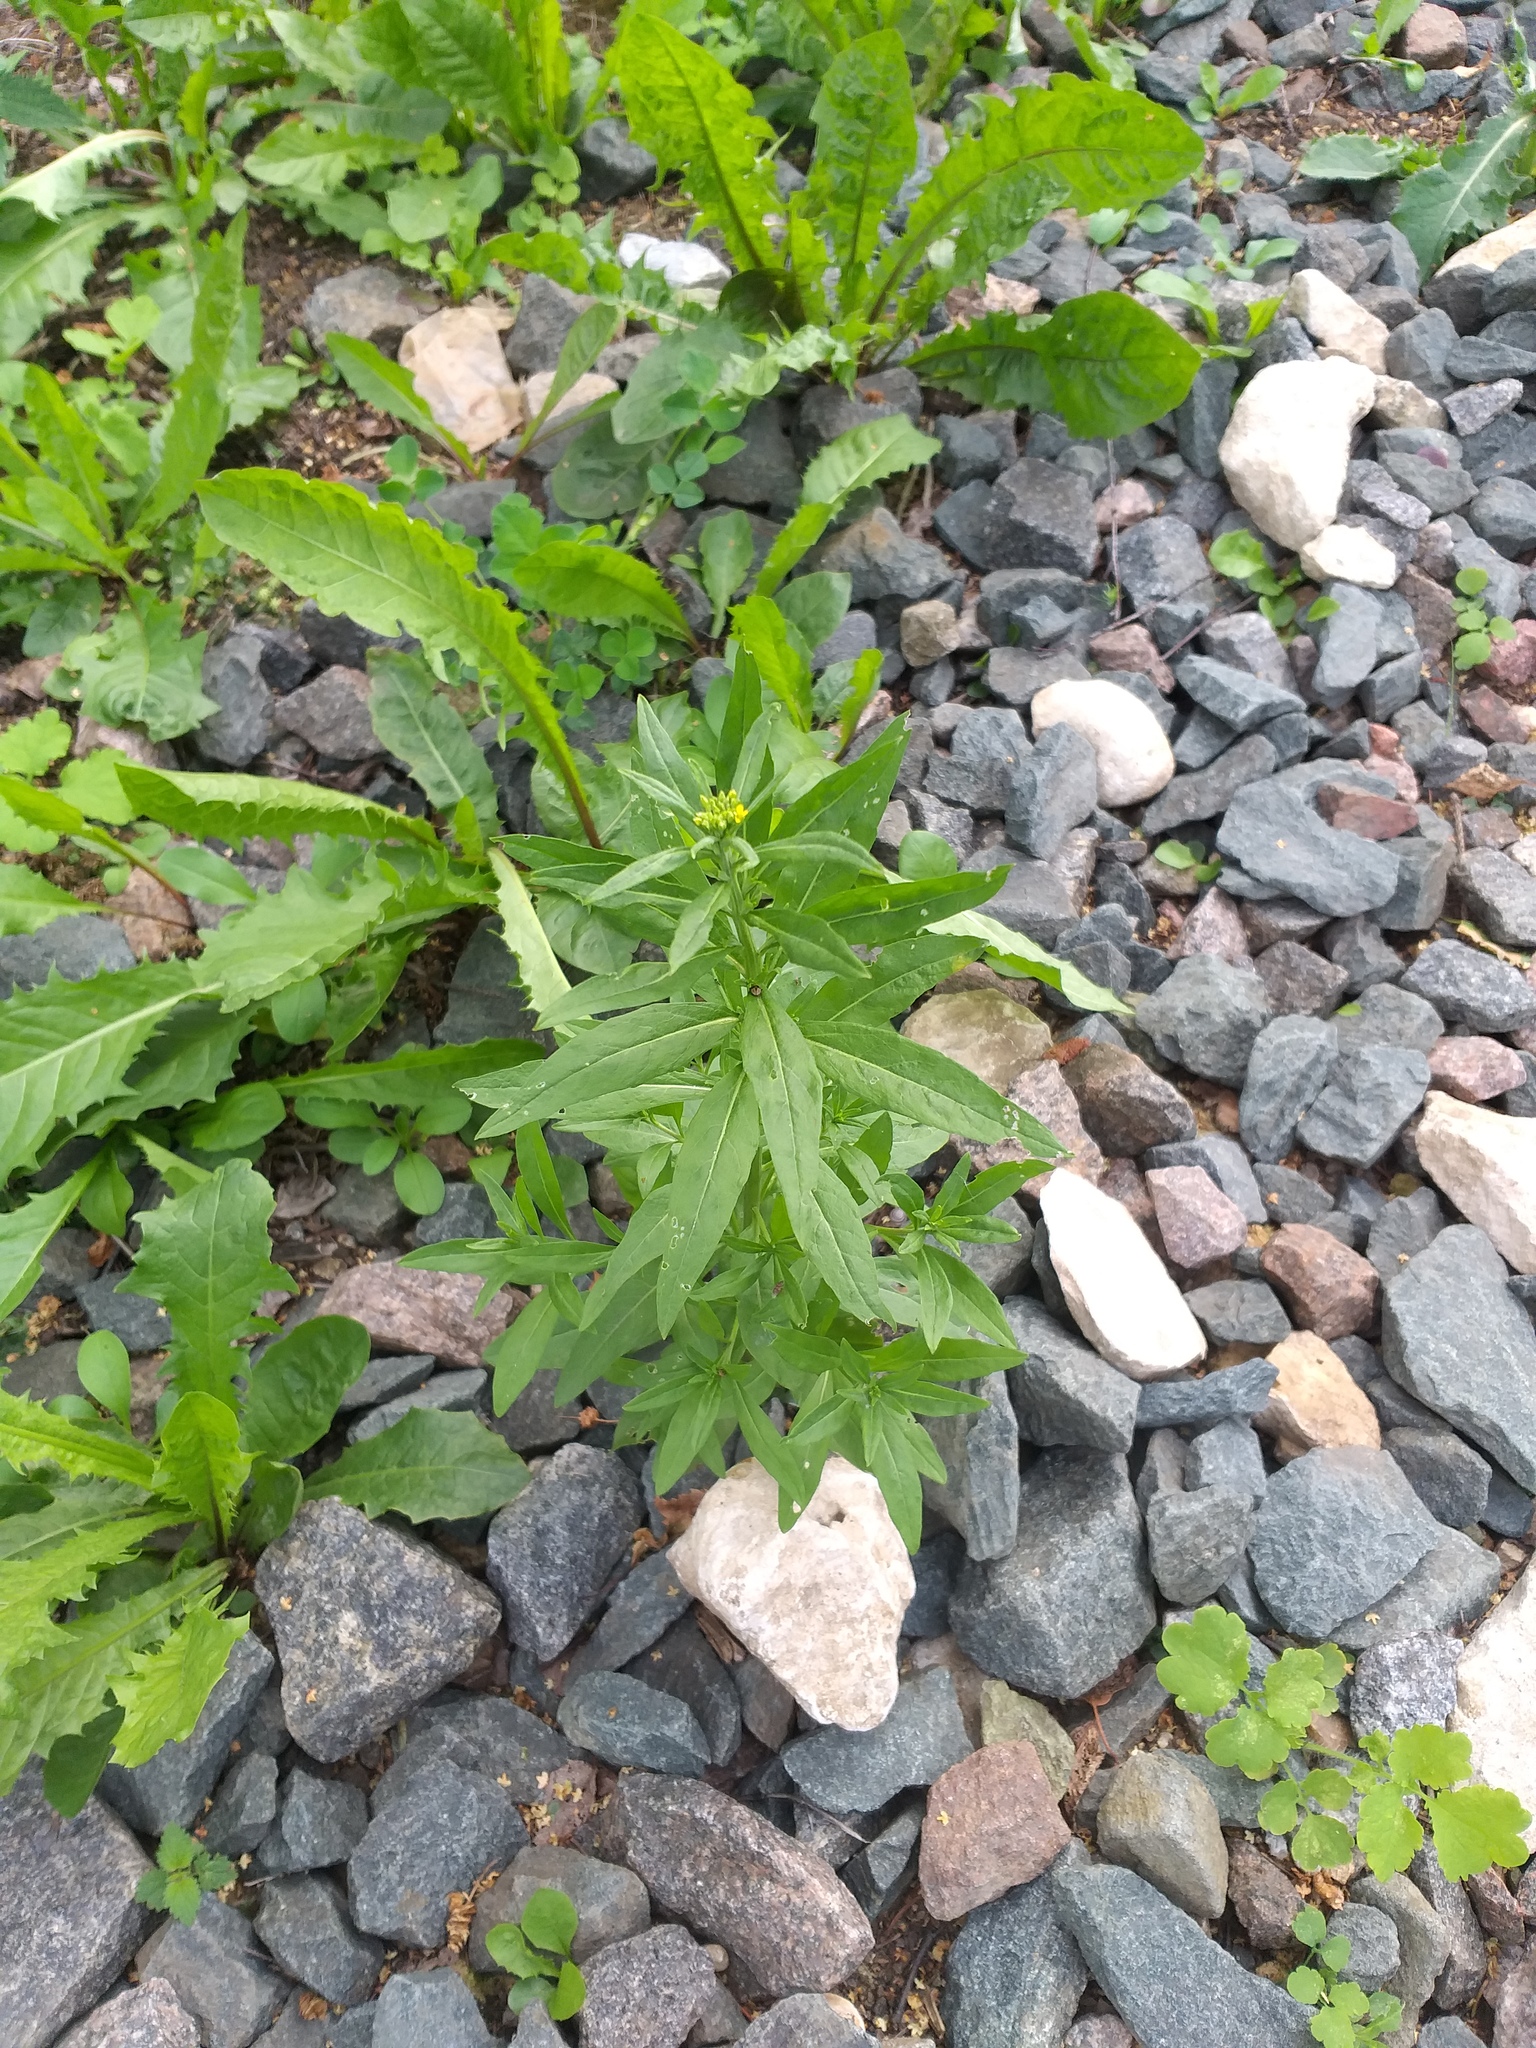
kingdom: Plantae
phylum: Tracheophyta
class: Magnoliopsida
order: Brassicales
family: Brassicaceae
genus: Erysimum
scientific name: Erysimum cheiranthoides
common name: Treacle mustard
